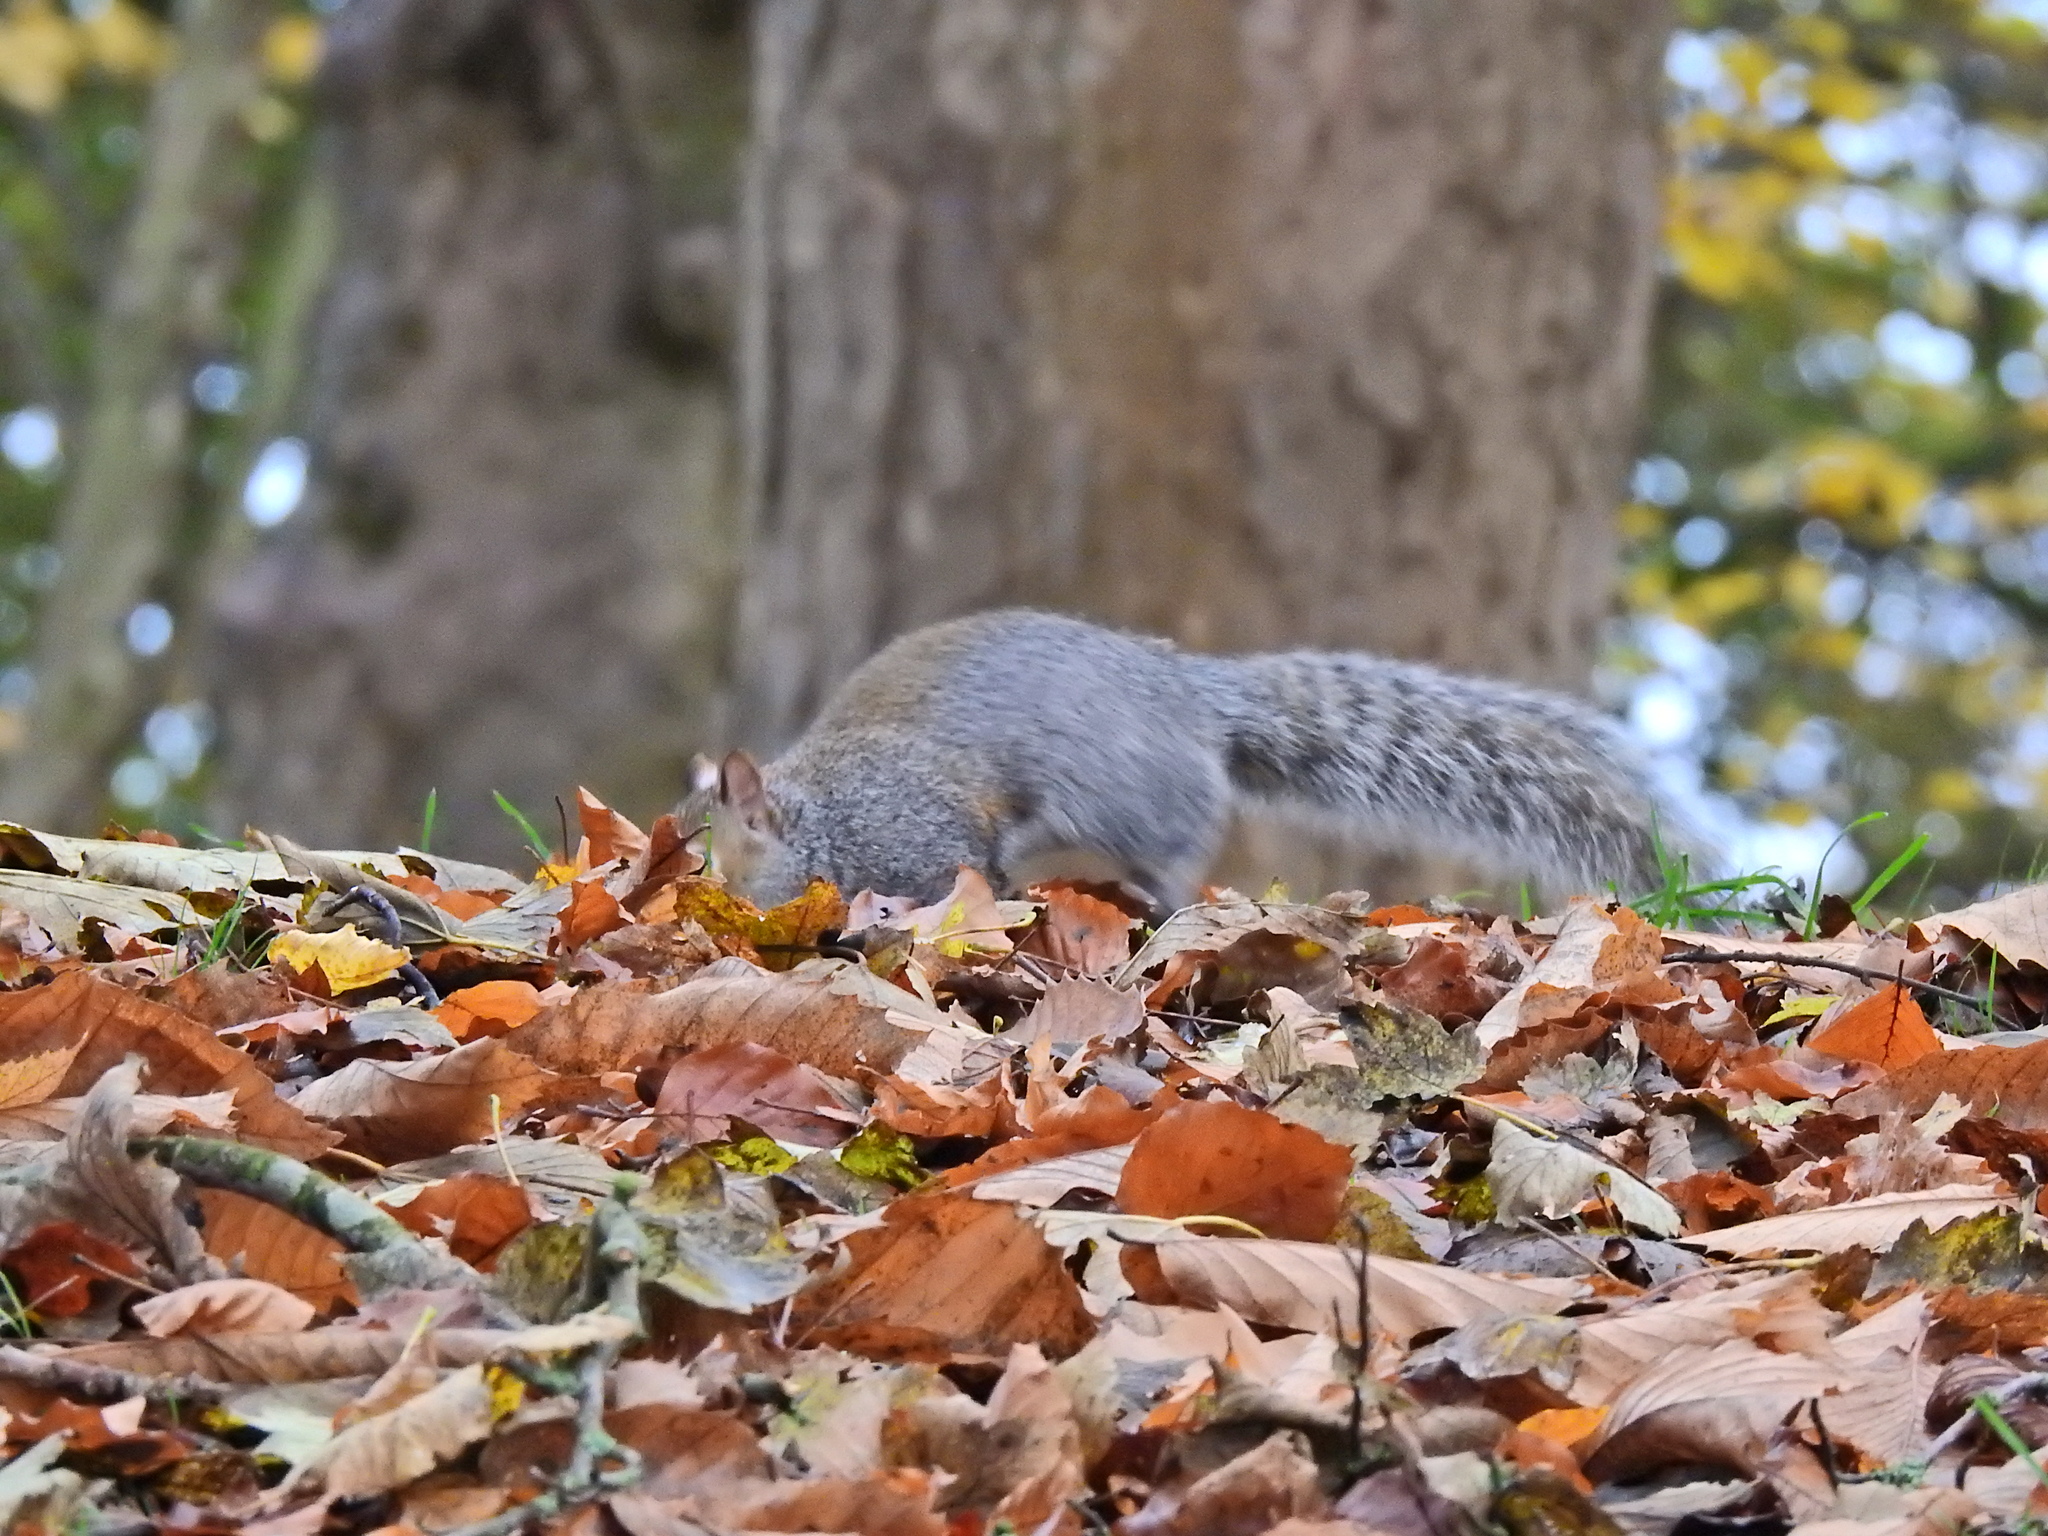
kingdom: Animalia
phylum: Chordata
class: Mammalia
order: Rodentia
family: Sciuridae
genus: Sciurus
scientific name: Sciurus carolinensis
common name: Eastern gray squirrel
